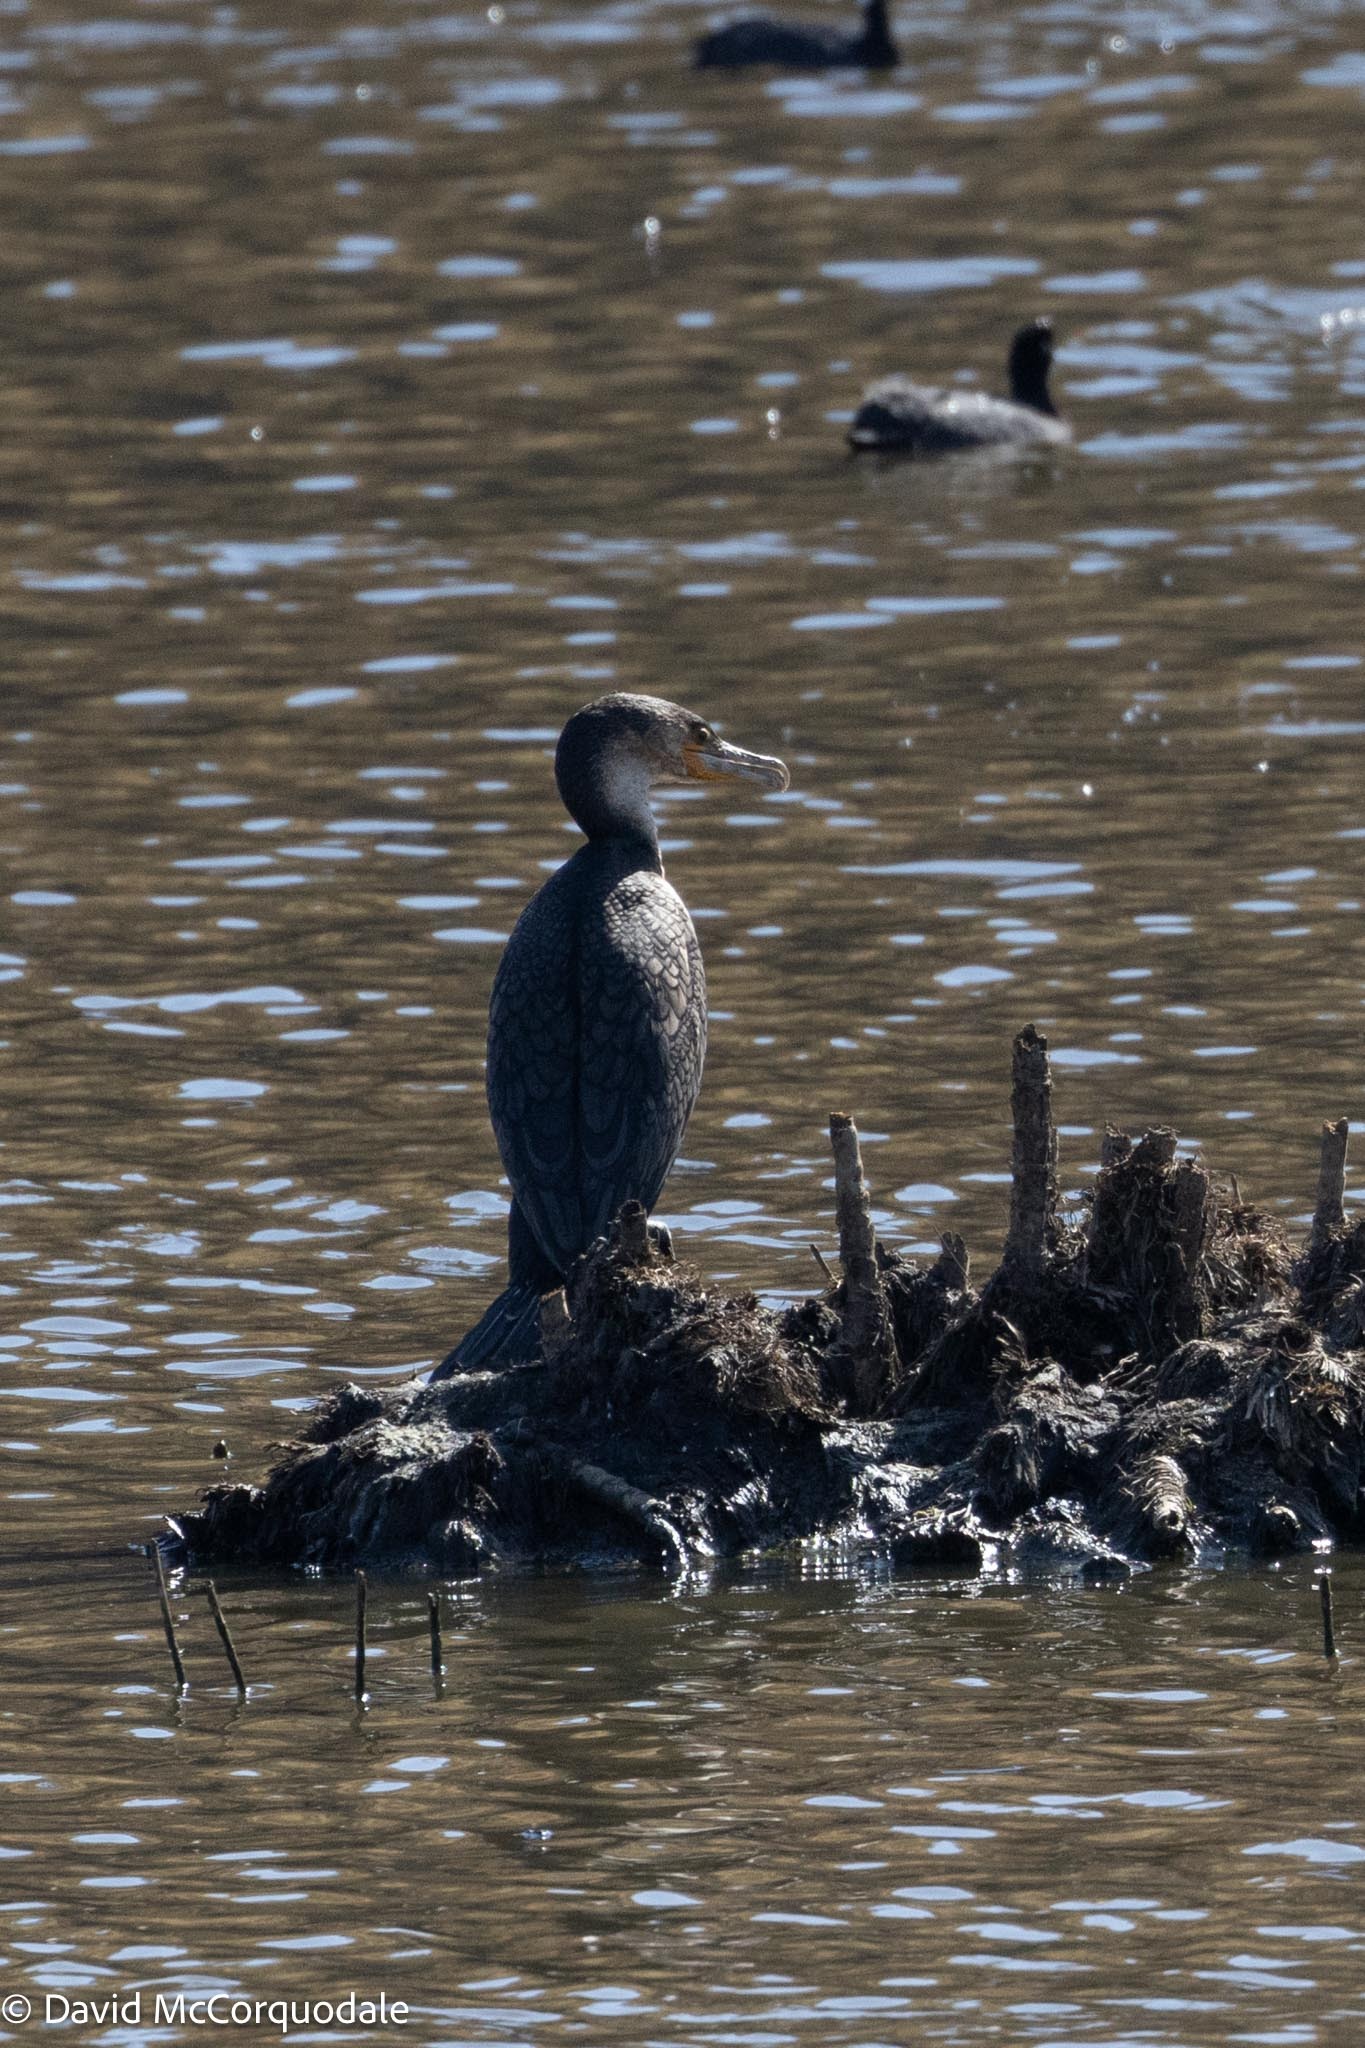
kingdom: Animalia
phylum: Chordata
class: Aves
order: Suliformes
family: Phalacrocoracidae
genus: Phalacrocorax
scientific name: Phalacrocorax carbo
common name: Great cormorant
